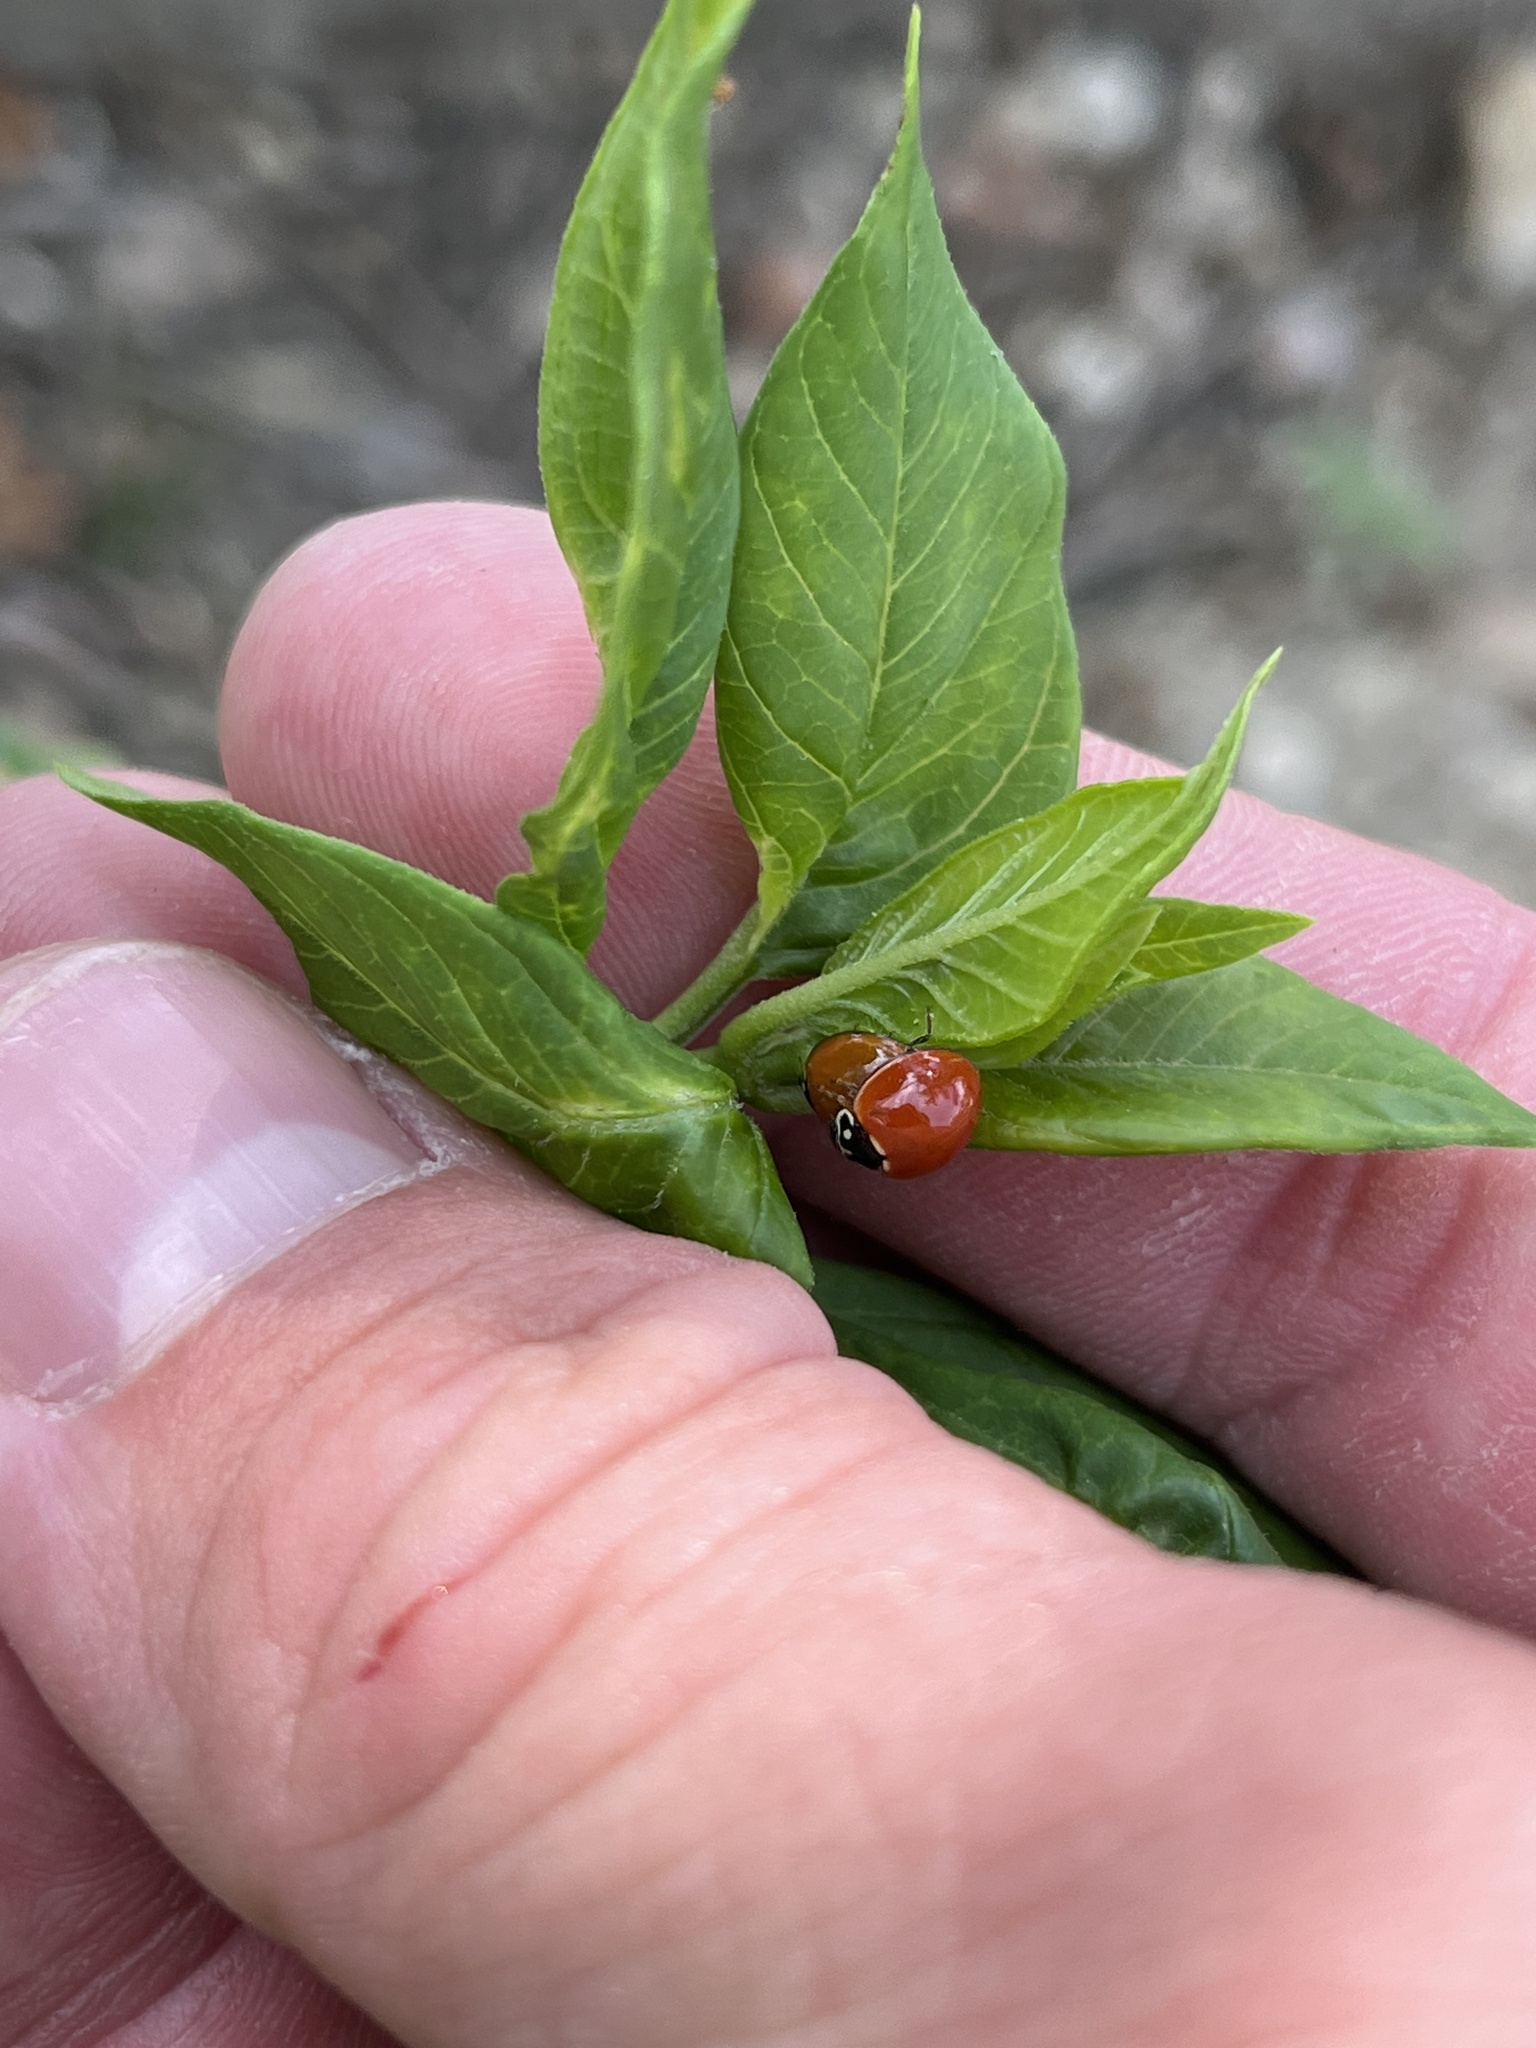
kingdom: Animalia
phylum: Arthropoda
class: Insecta
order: Coleoptera
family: Coccinellidae
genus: Cycloneda
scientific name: Cycloneda sanguinea
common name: Ladybird beetle
